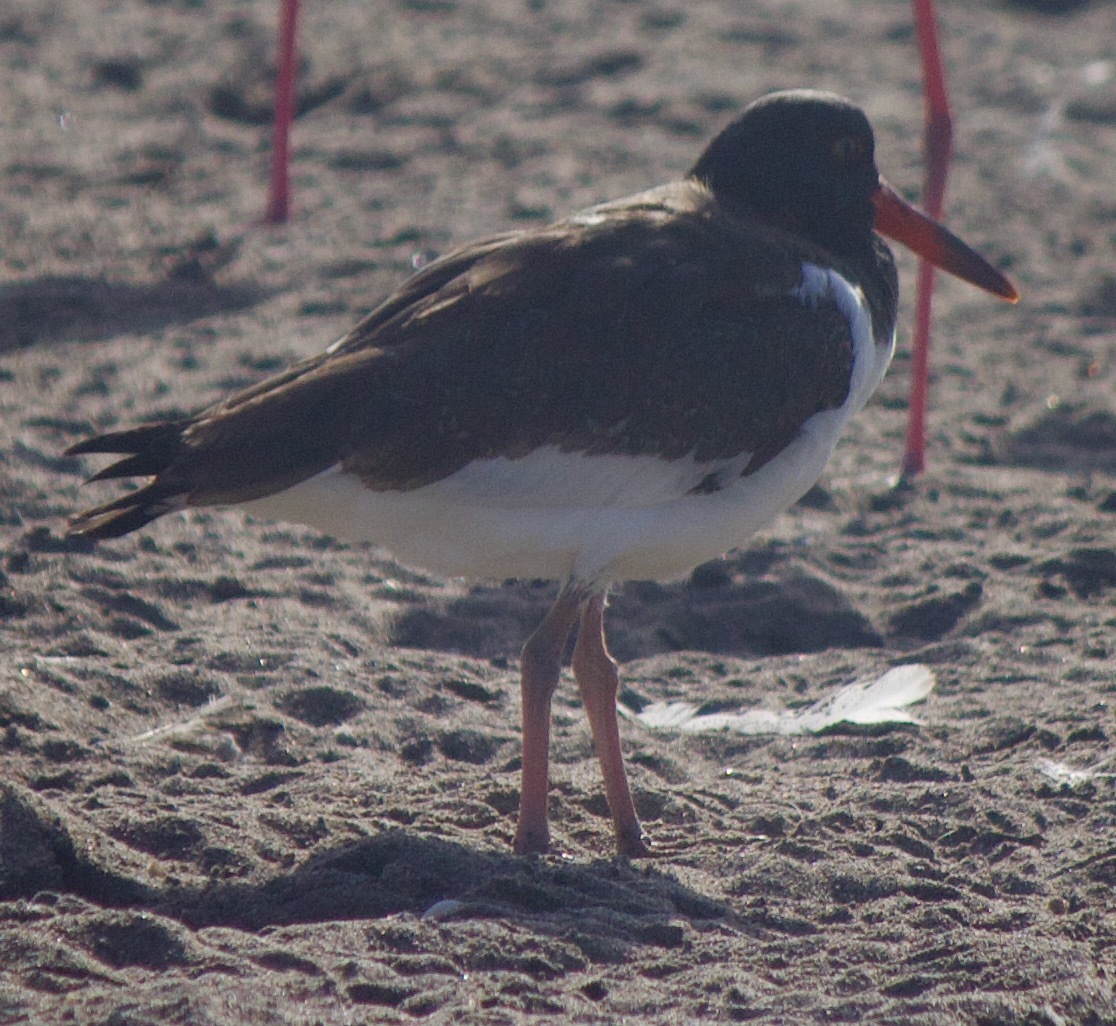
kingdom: Animalia
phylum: Chordata
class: Aves
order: Charadriiformes
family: Haematopodidae
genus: Haematopus
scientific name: Haematopus palliatus
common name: American oystercatcher
